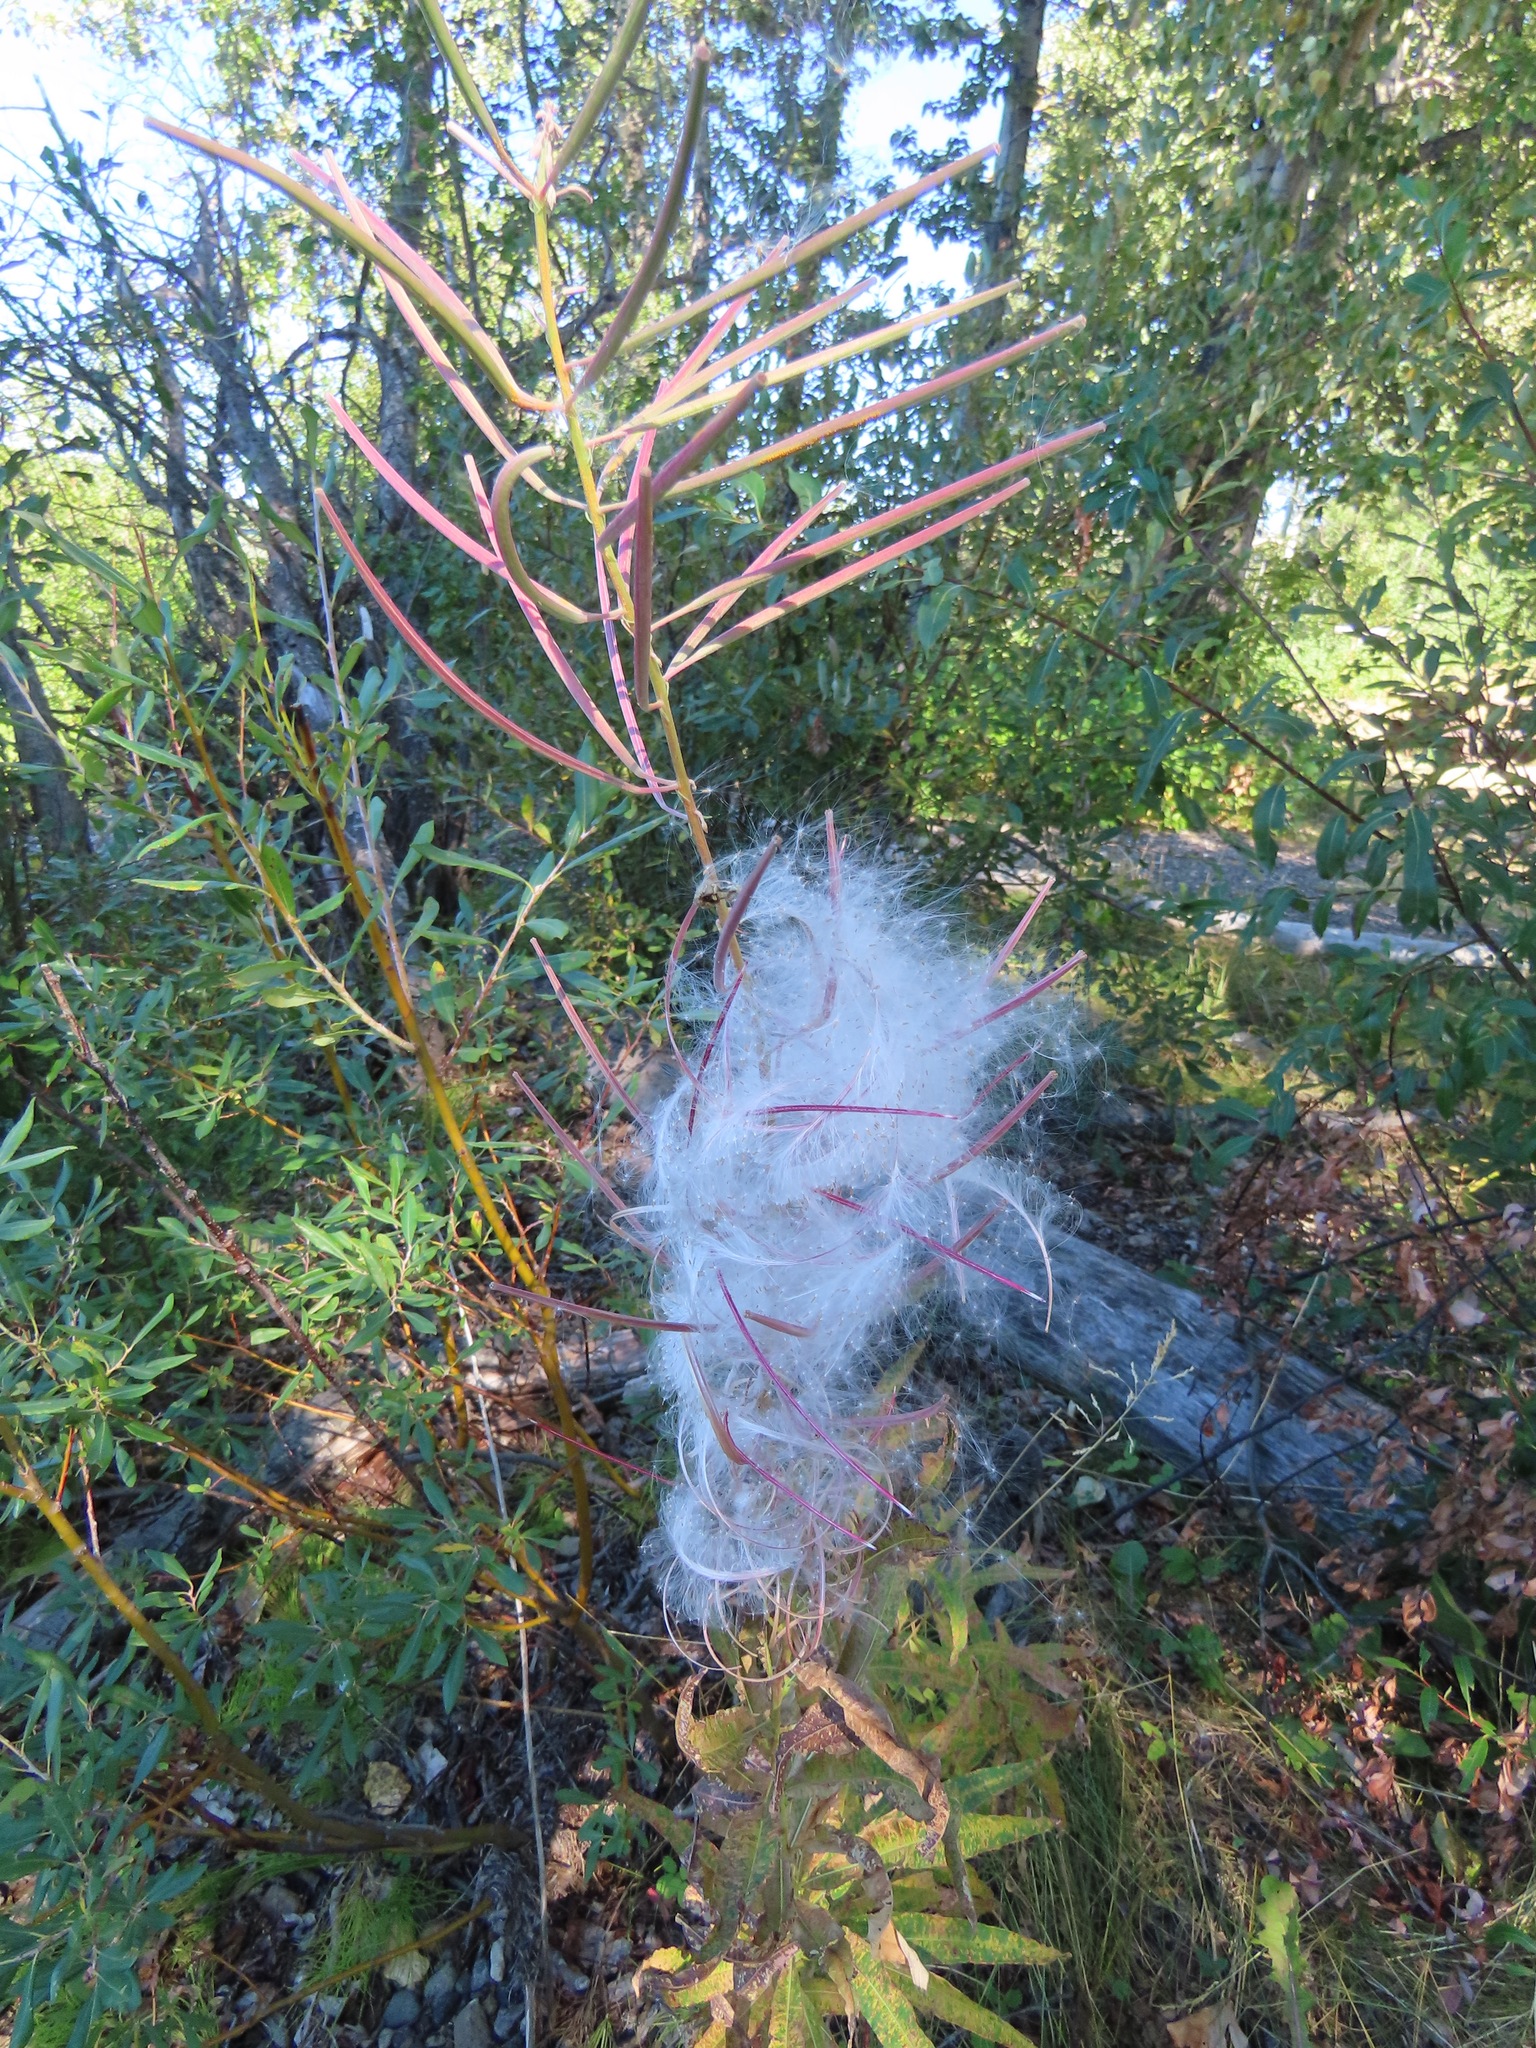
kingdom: Plantae
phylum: Tracheophyta
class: Magnoliopsida
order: Myrtales
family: Onagraceae
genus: Chamaenerion
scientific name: Chamaenerion angustifolium
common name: Fireweed
